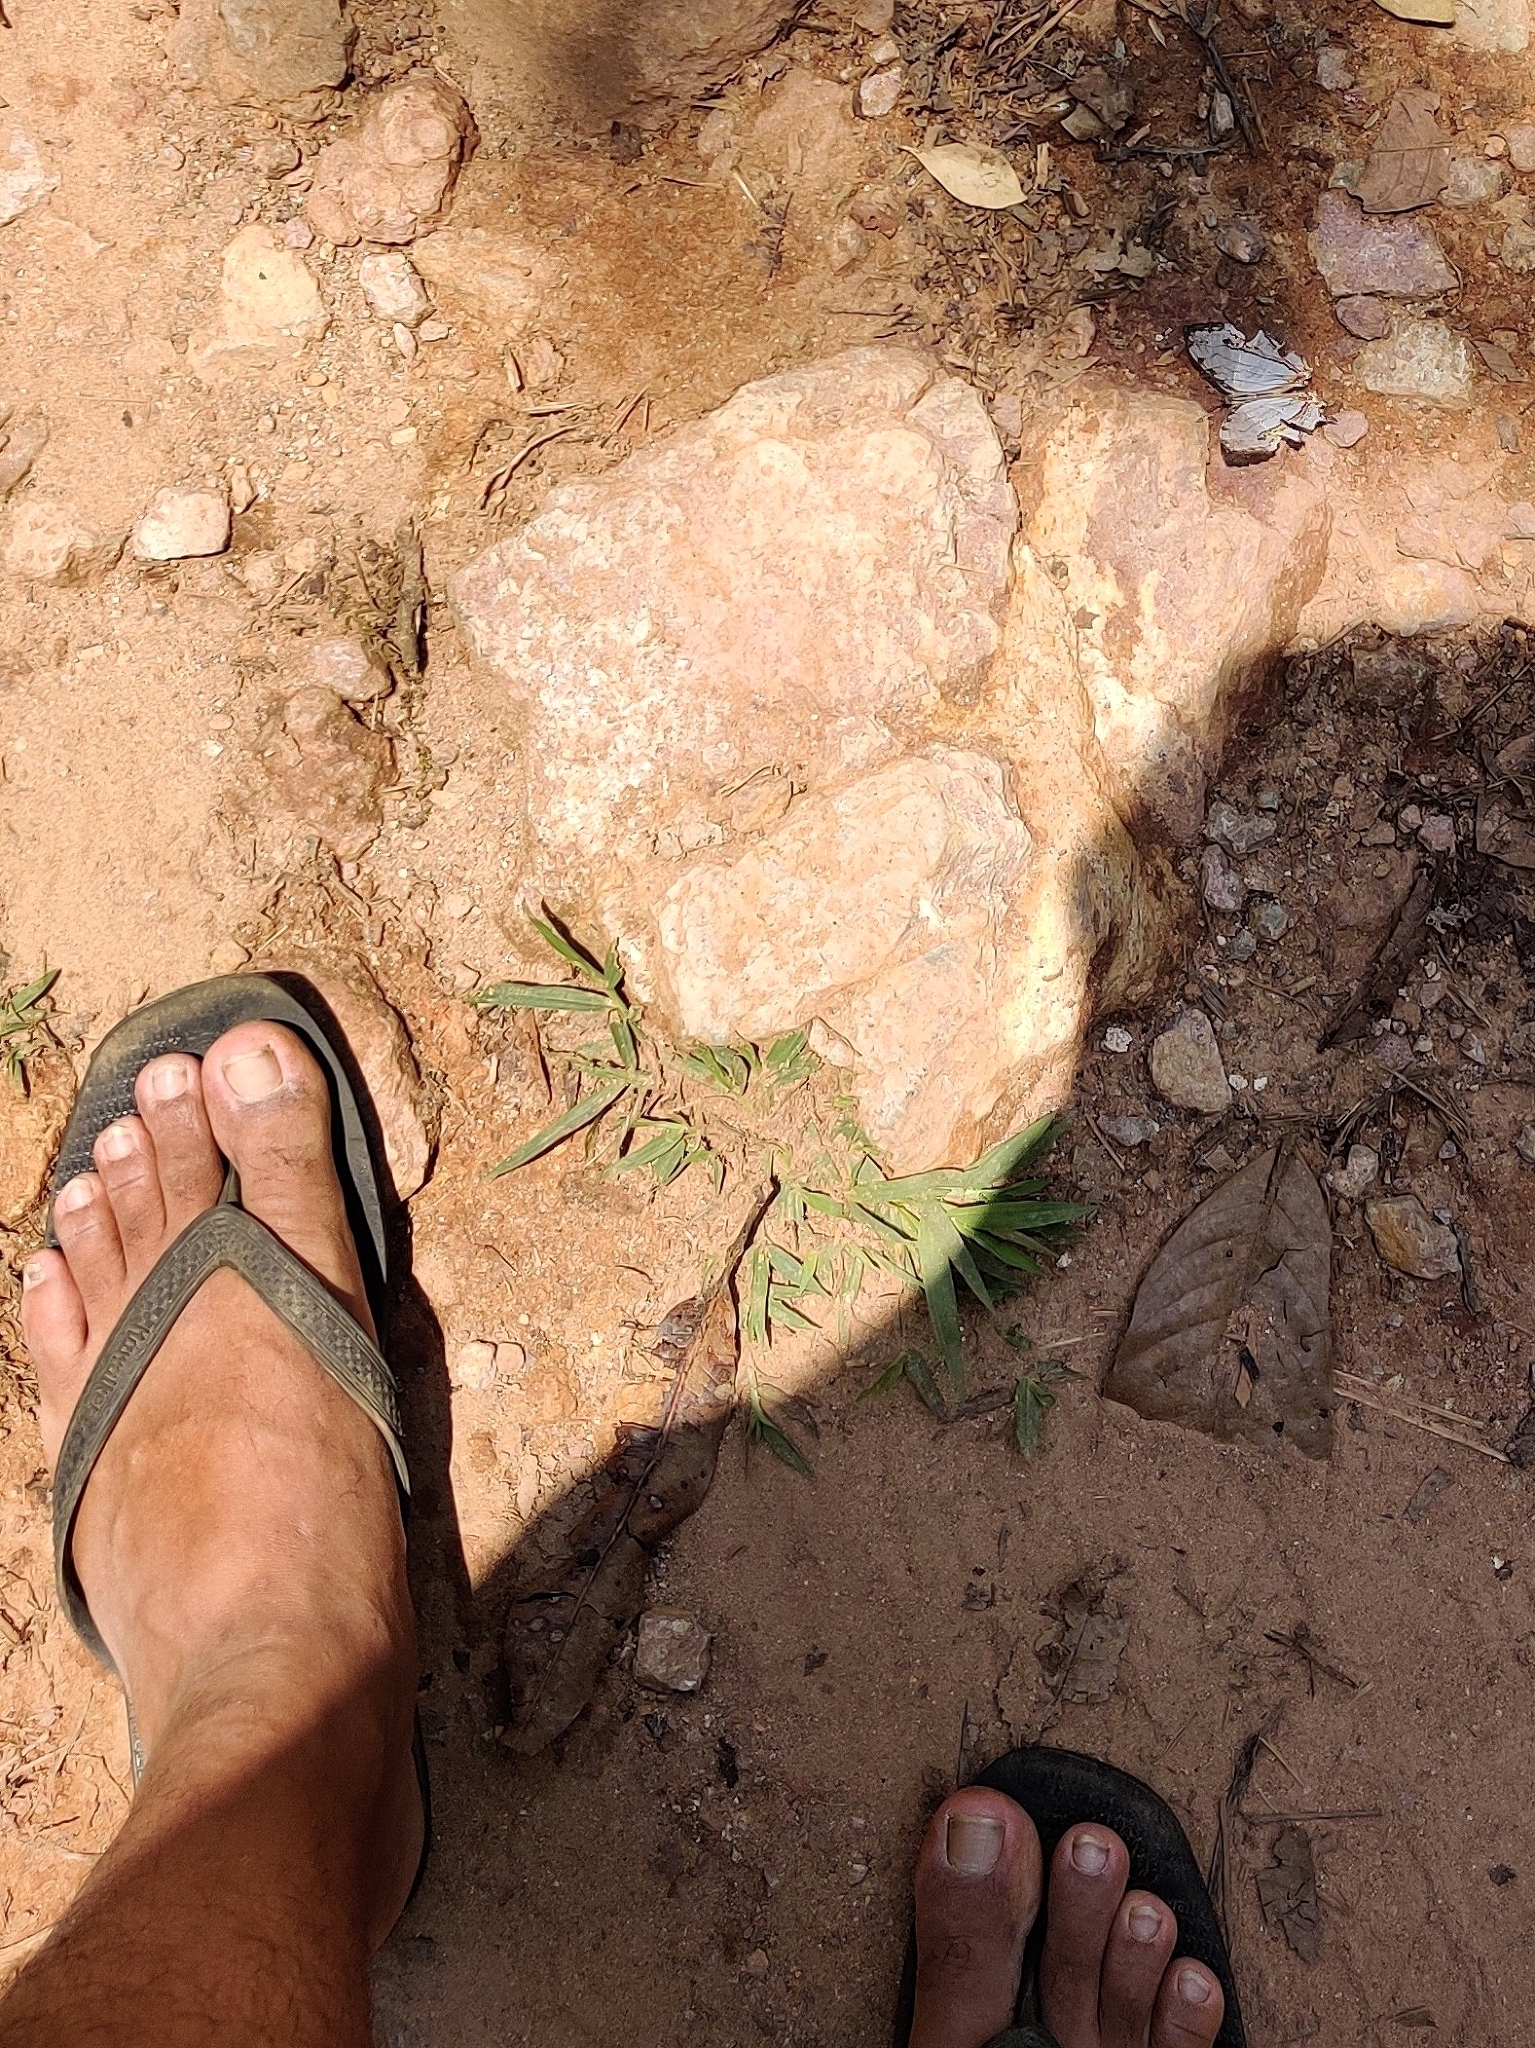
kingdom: Animalia
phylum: Arthropoda
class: Insecta
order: Lepidoptera
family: Nymphalidae
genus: Cyrestis
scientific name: Cyrestis thyodamas
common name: Common mapwing
